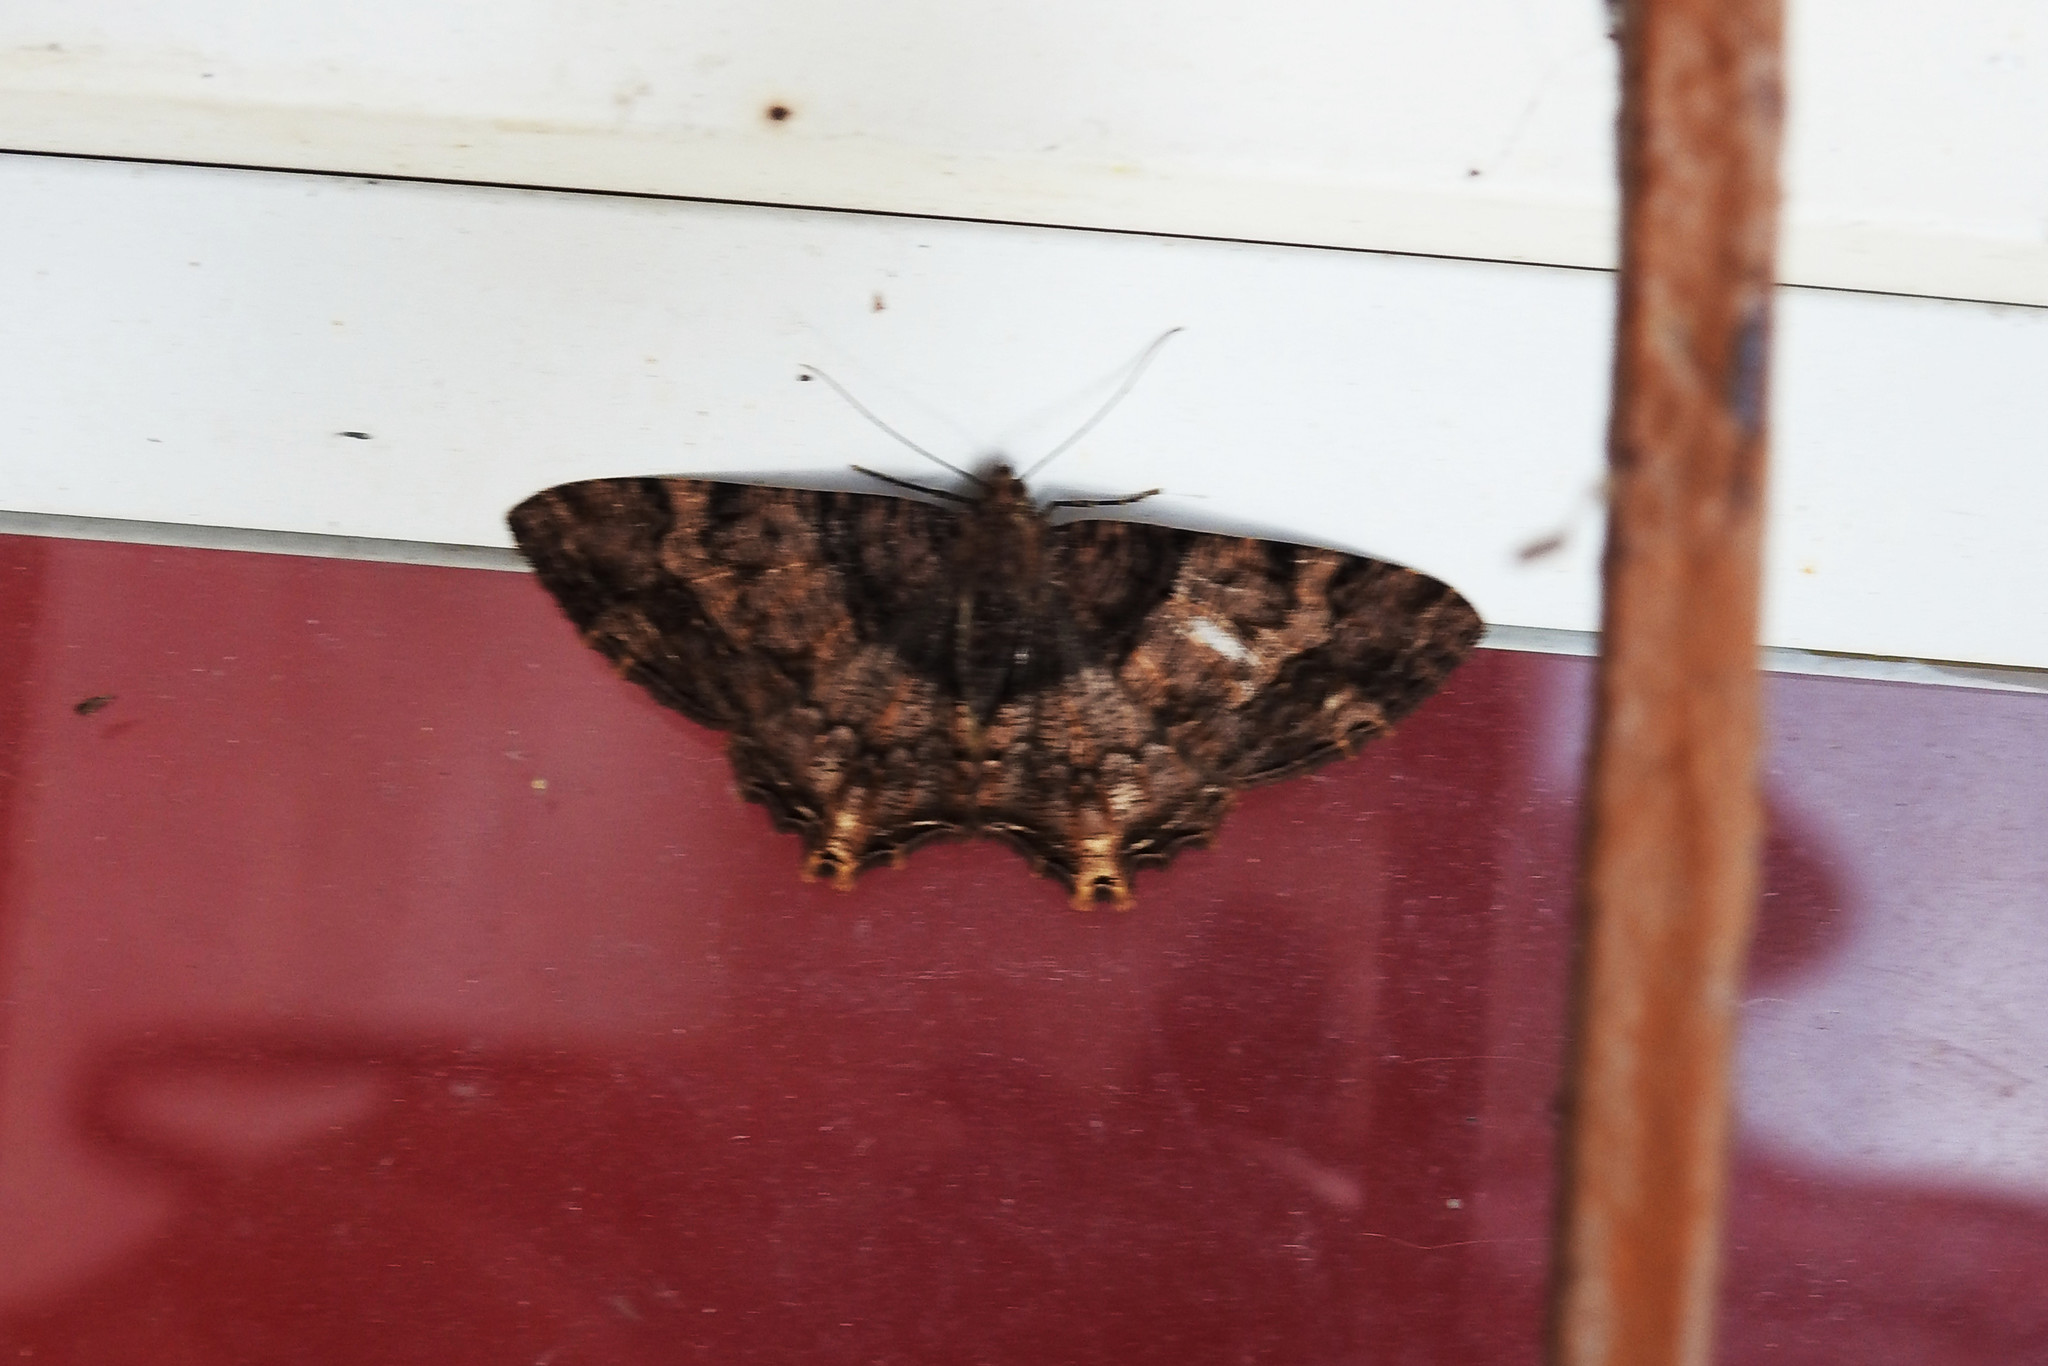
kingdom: Animalia
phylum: Arthropoda
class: Insecta
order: Lepidoptera
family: Geometridae
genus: Sinameda
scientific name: Sinameda basistrigaria
